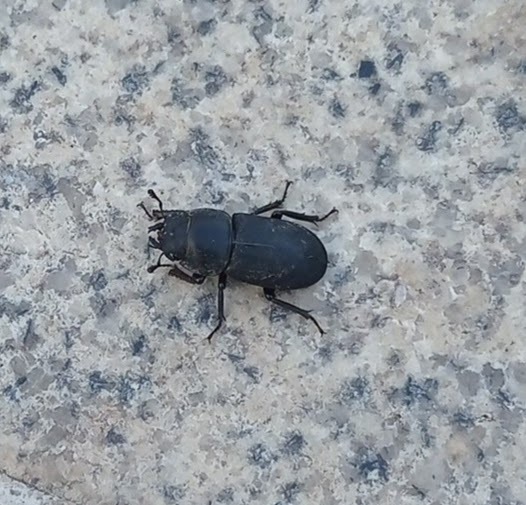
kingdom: Animalia
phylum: Arthropoda
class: Insecta
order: Coleoptera
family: Lucanidae
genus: Dorcus
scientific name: Dorcus parallelipipedus
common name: Lesser stag beetle
